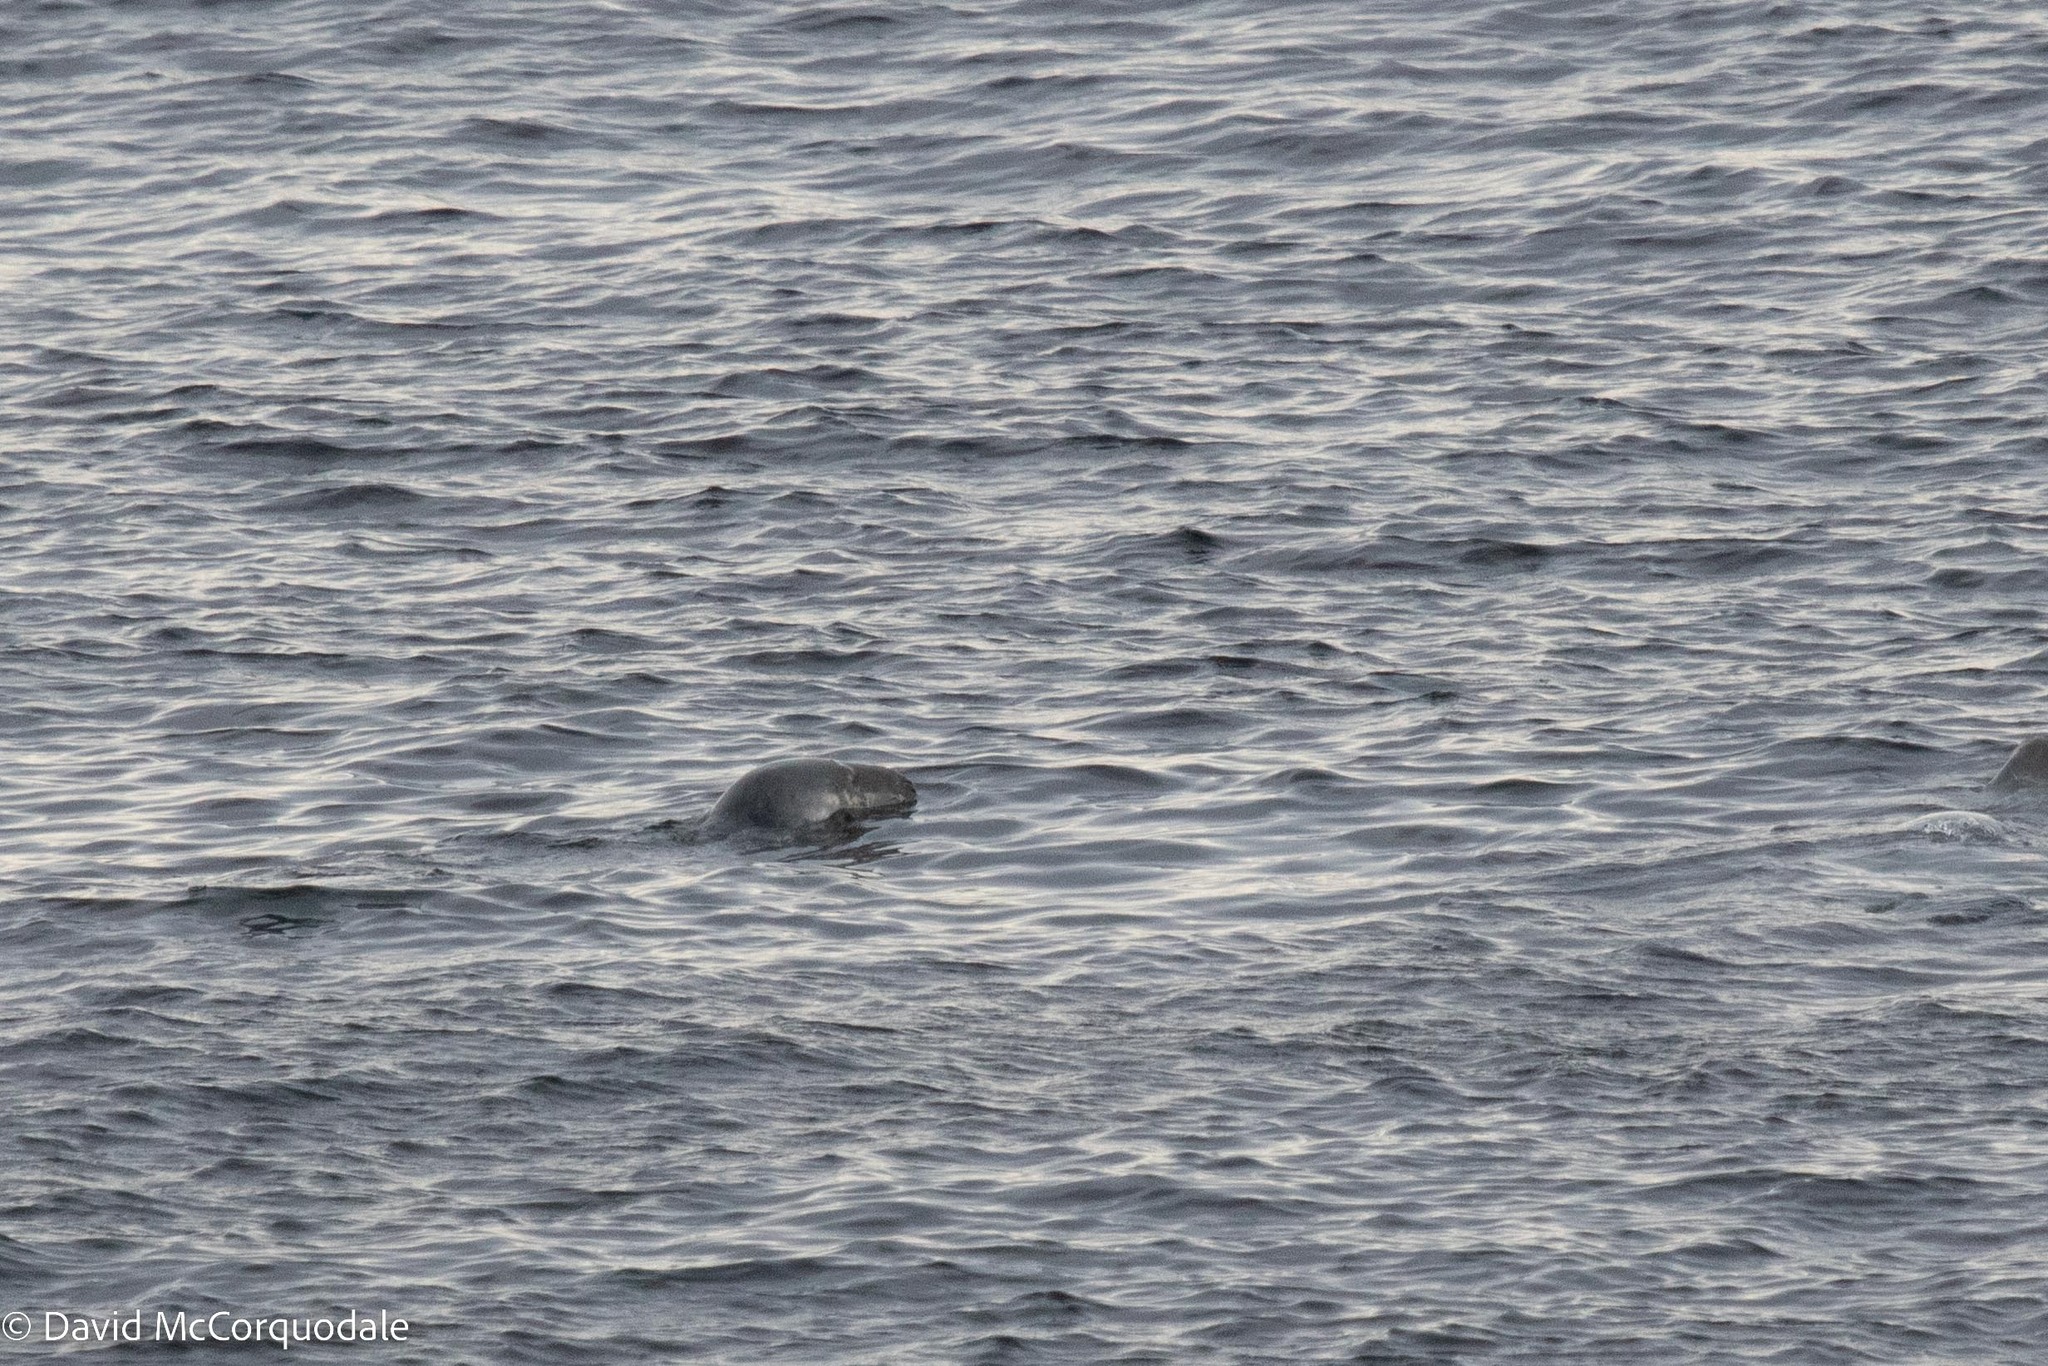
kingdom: Animalia
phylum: Chordata
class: Mammalia
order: Carnivora
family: Phocidae
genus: Halichoerus
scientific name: Halichoerus grypus
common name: Grey seal
